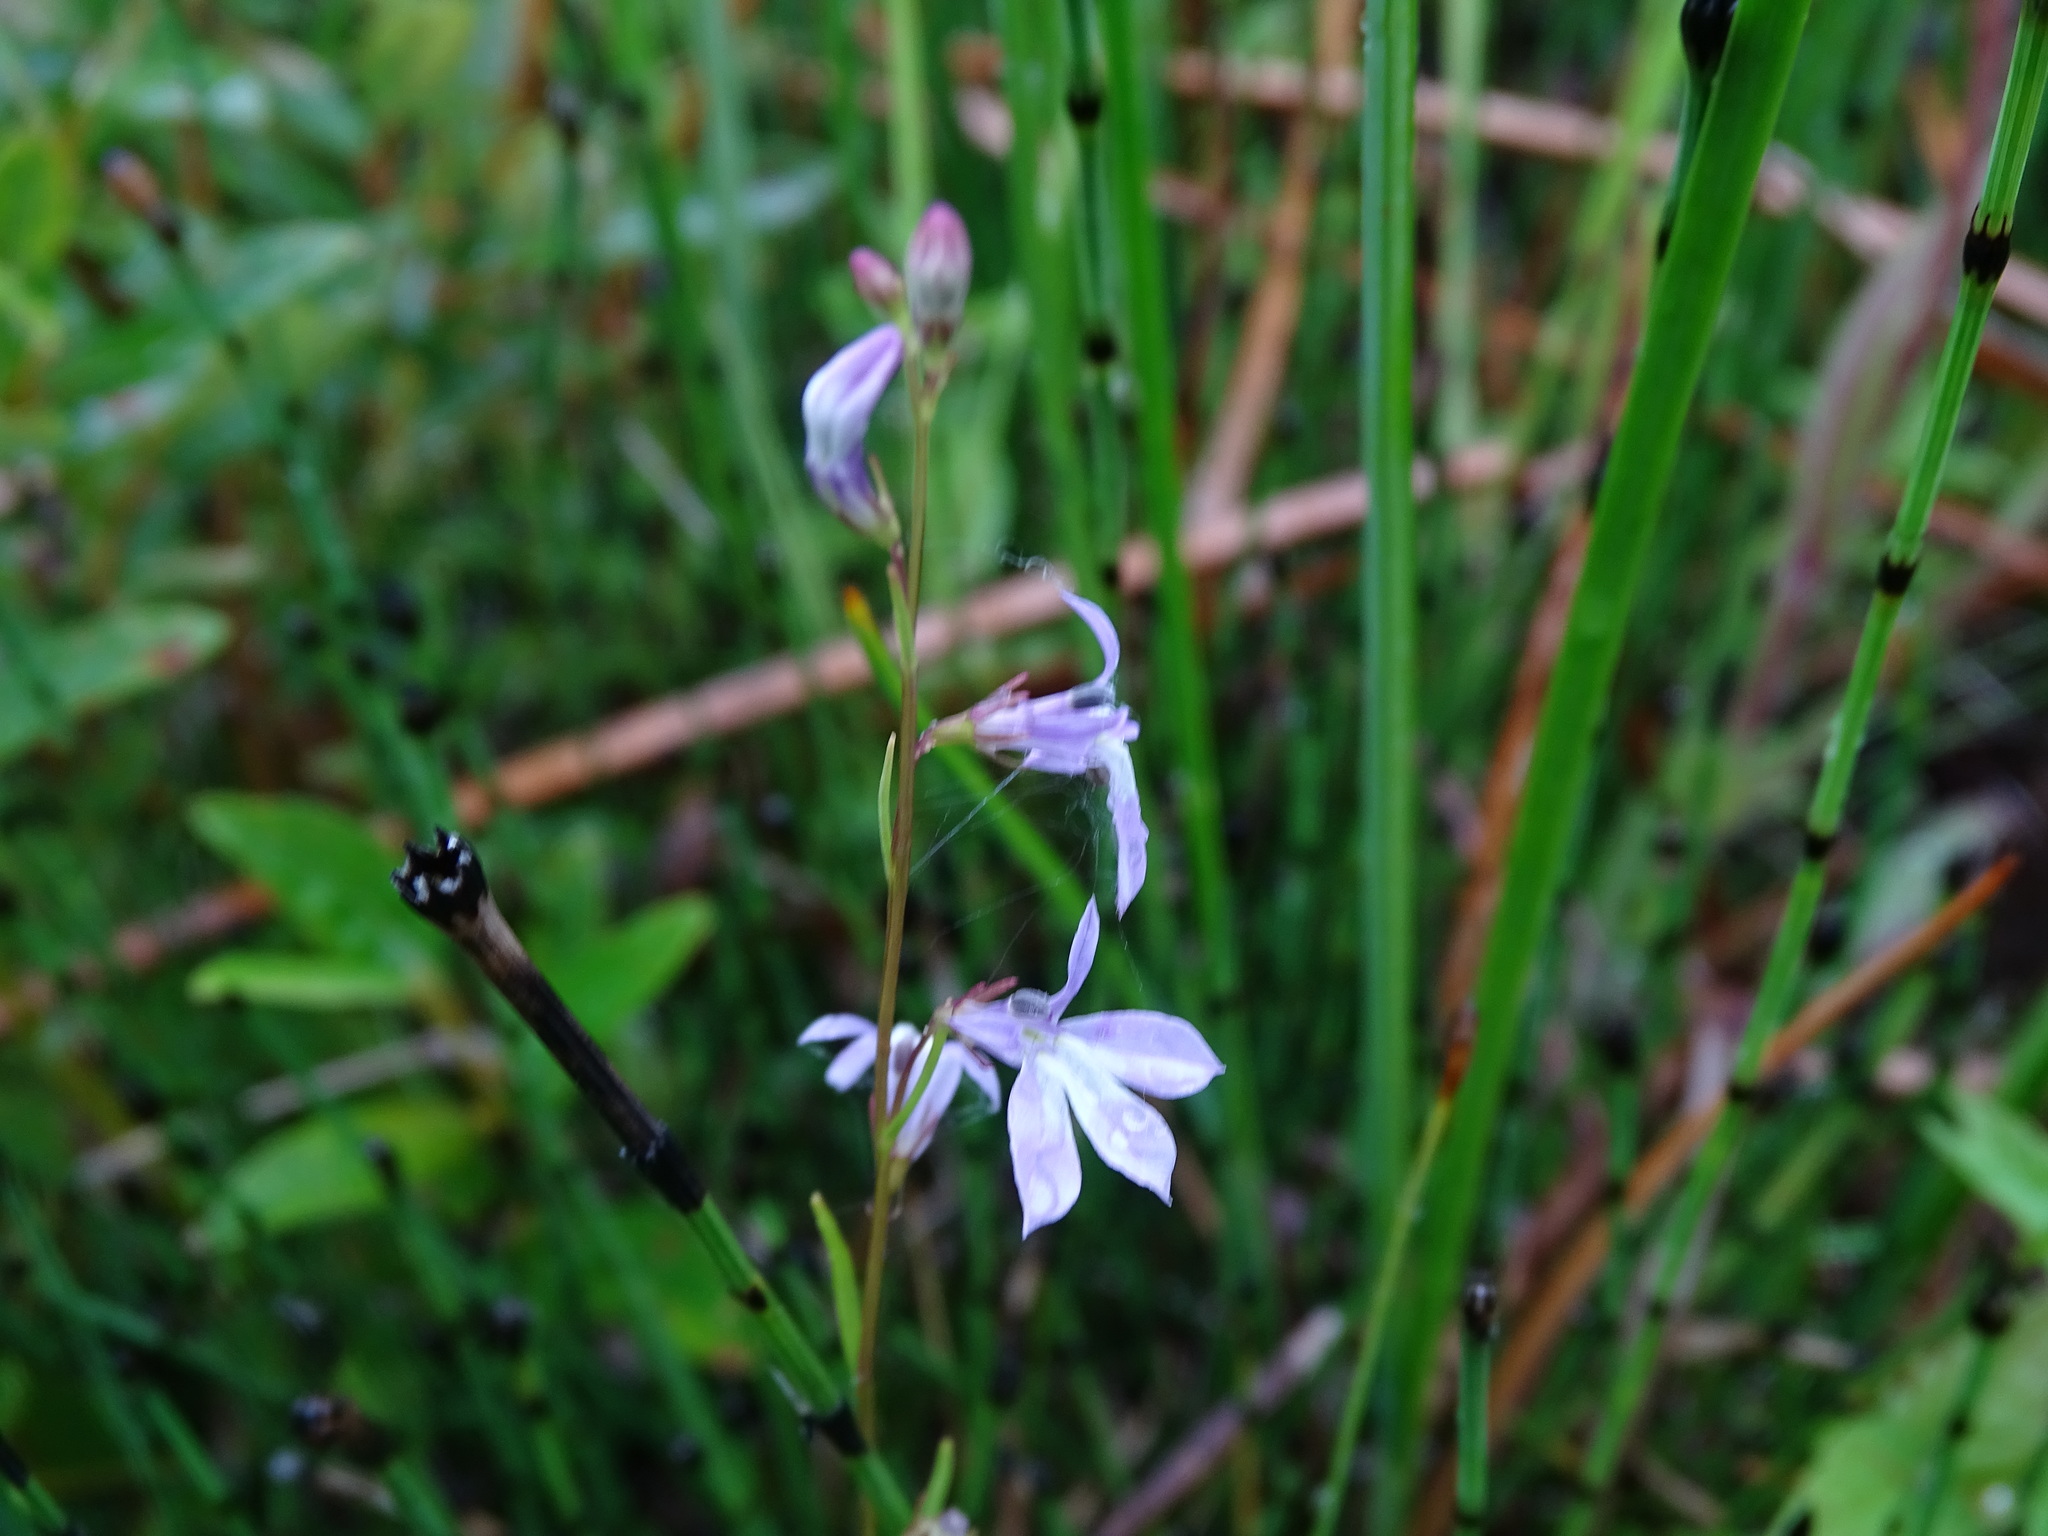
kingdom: Plantae
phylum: Tracheophyta
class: Magnoliopsida
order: Asterales
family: Campanulaceae
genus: Lobelia
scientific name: Lobelia kalmii
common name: Kalm's lobelia
